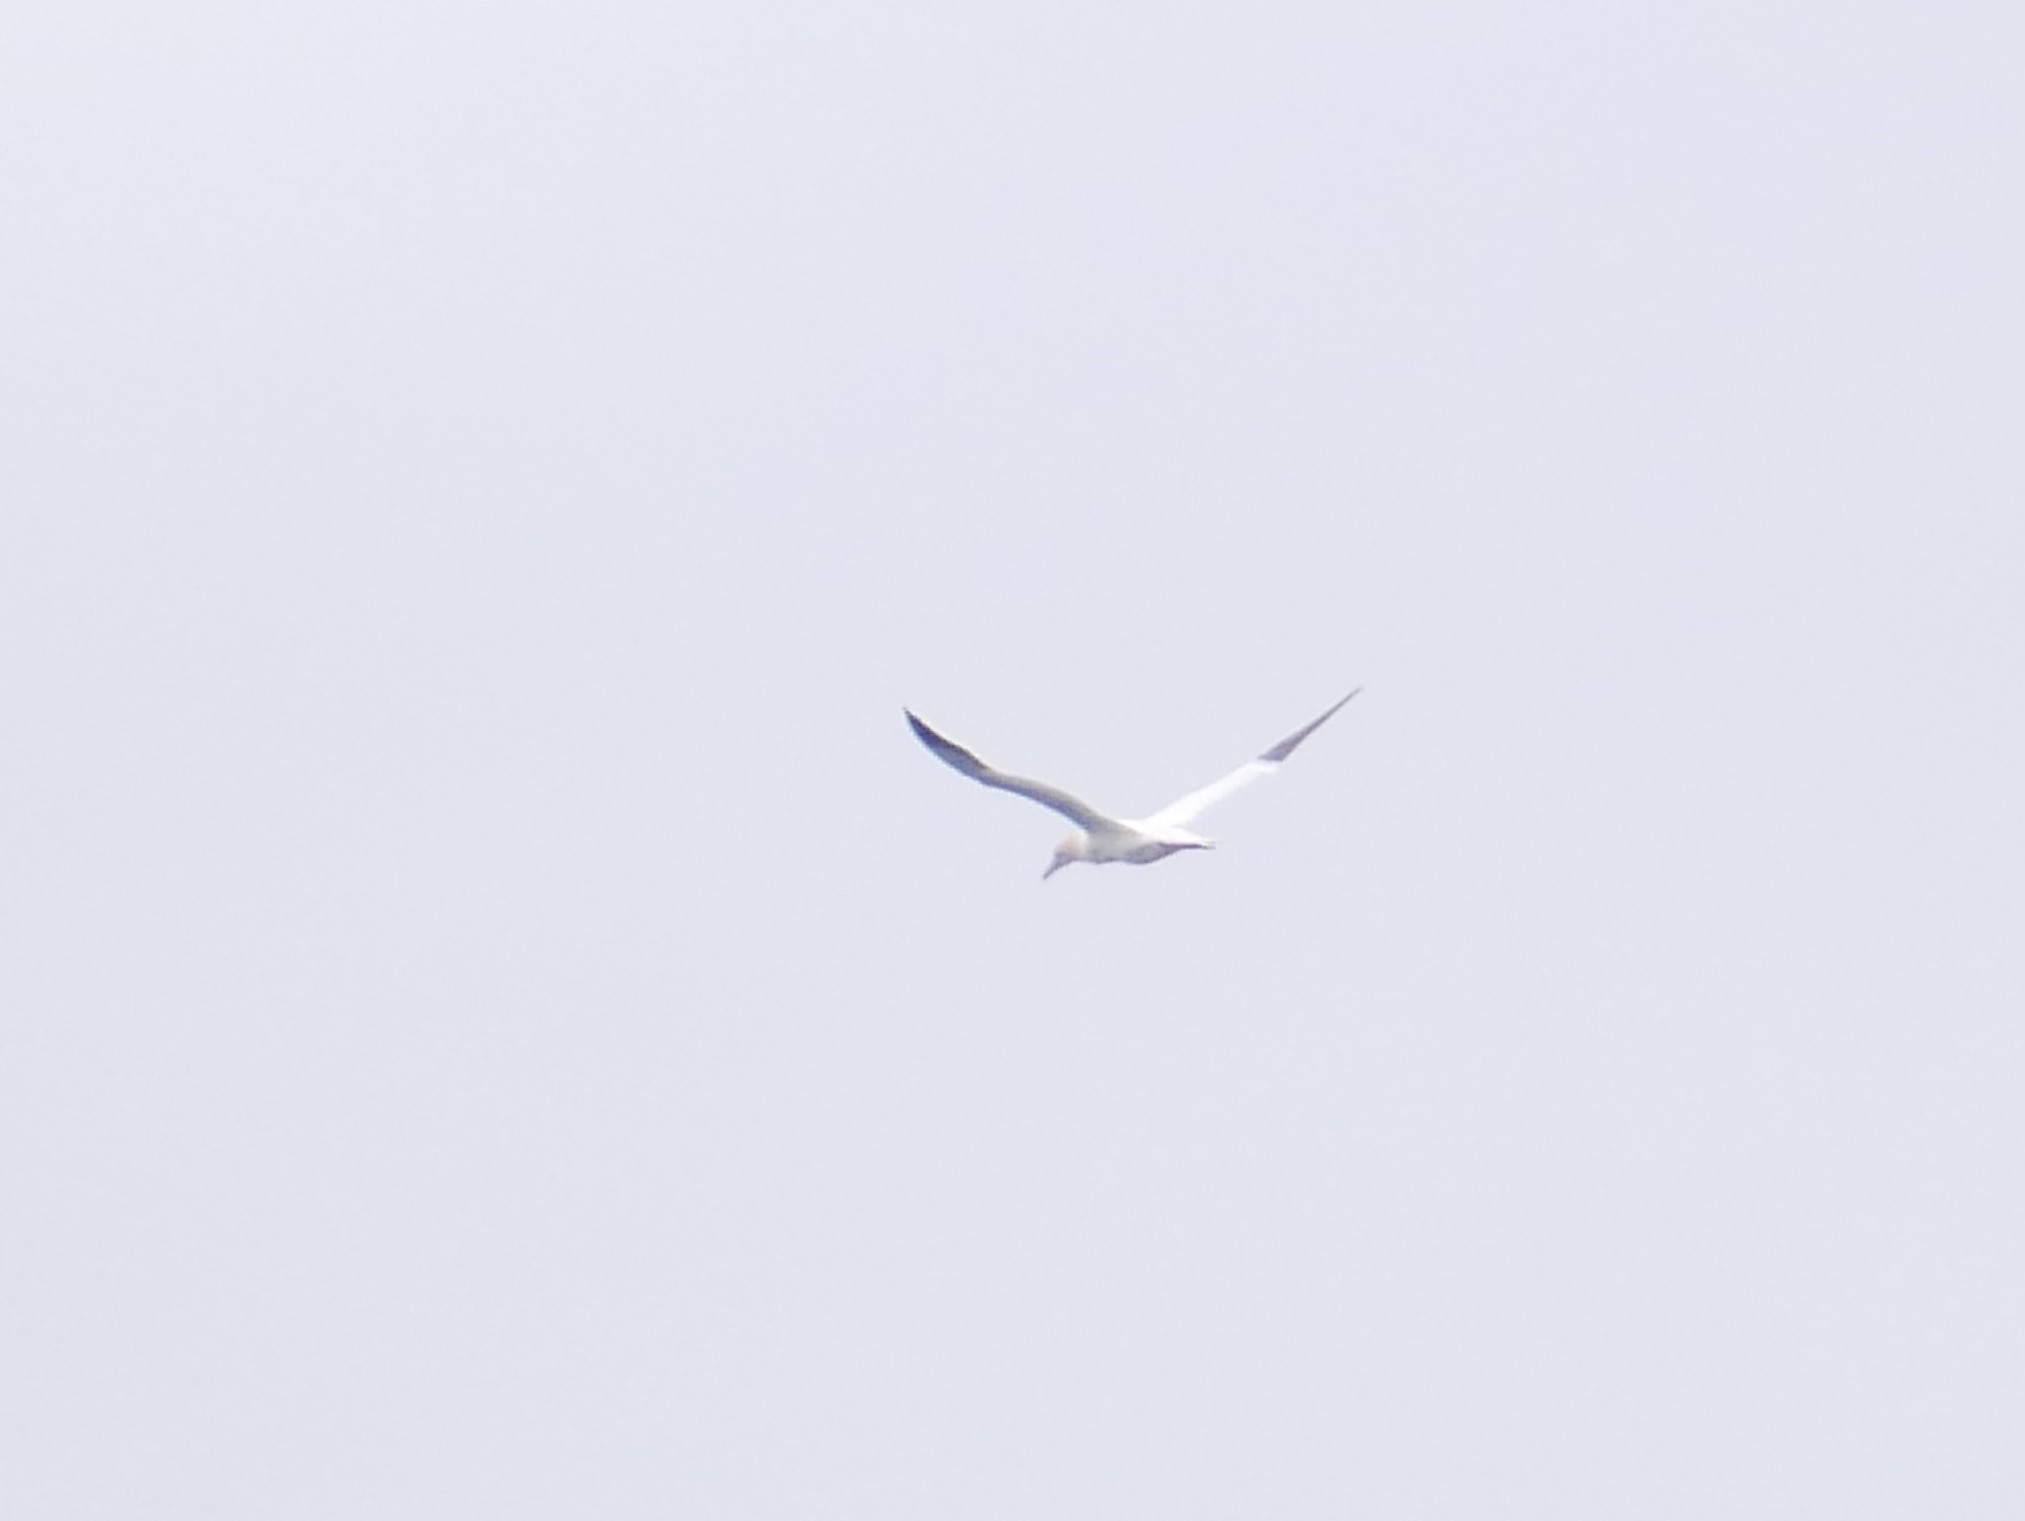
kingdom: Animalia
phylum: Chordata
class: Aves
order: Suliformes
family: Sulidae
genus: Morus
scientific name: Morus bassanus
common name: Northern gannet
